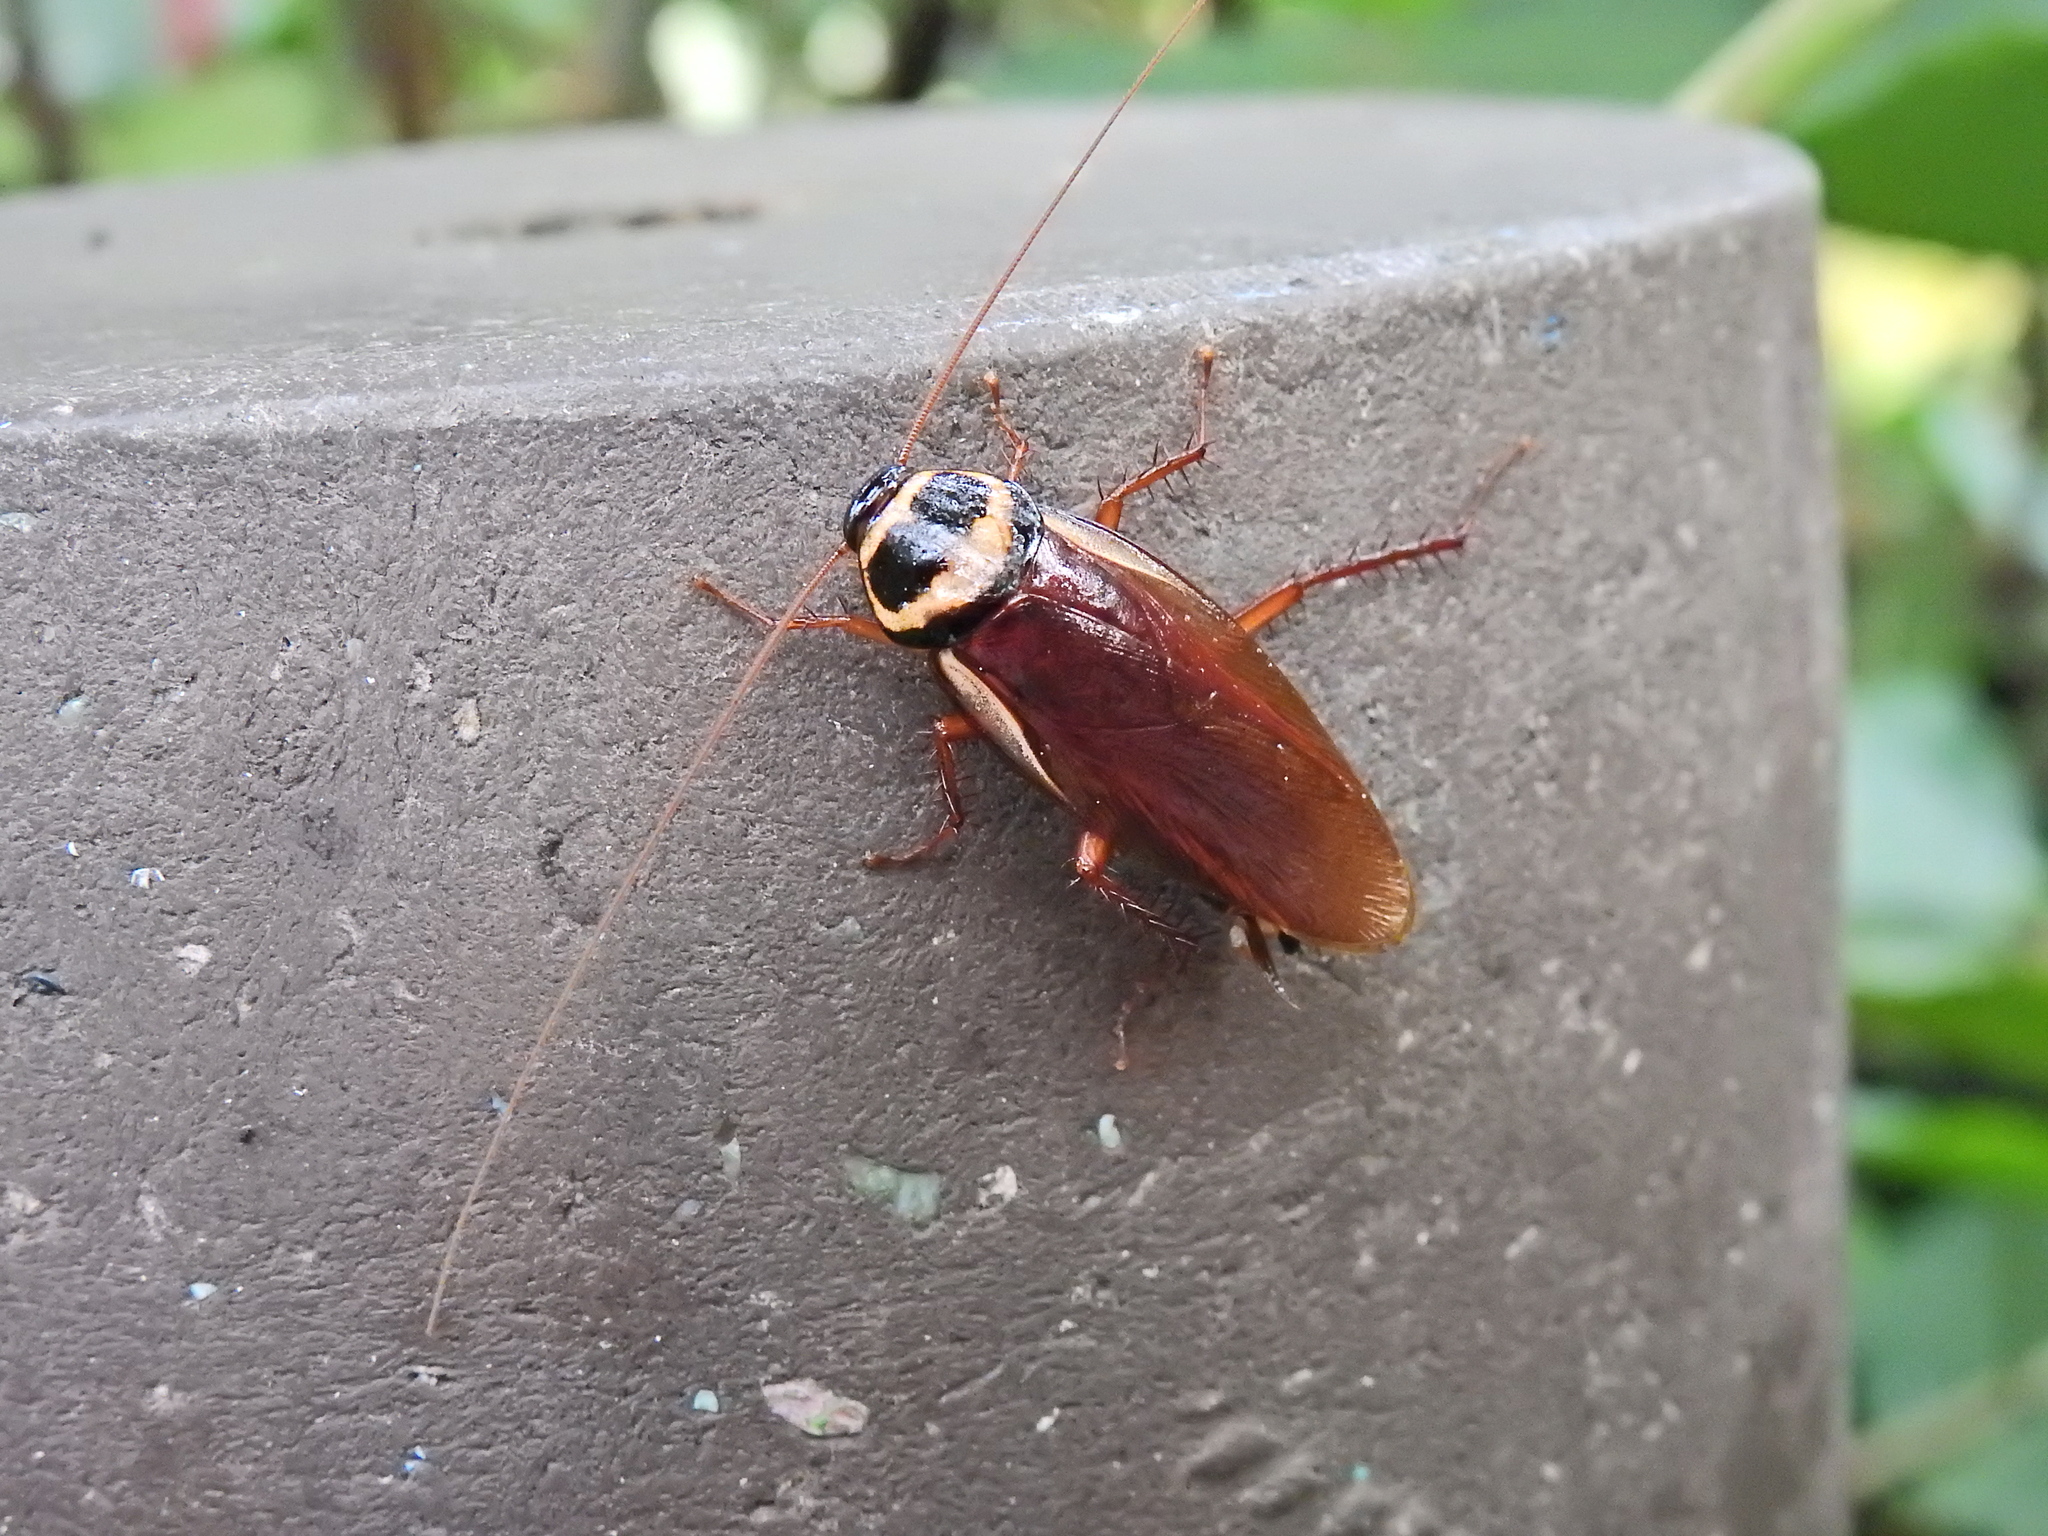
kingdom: Animalia
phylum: Arthropoda
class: Insecta
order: Blattodea
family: Blattidae
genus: Periplaneta
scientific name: Periplaneta australasiae
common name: Australian cockroach
